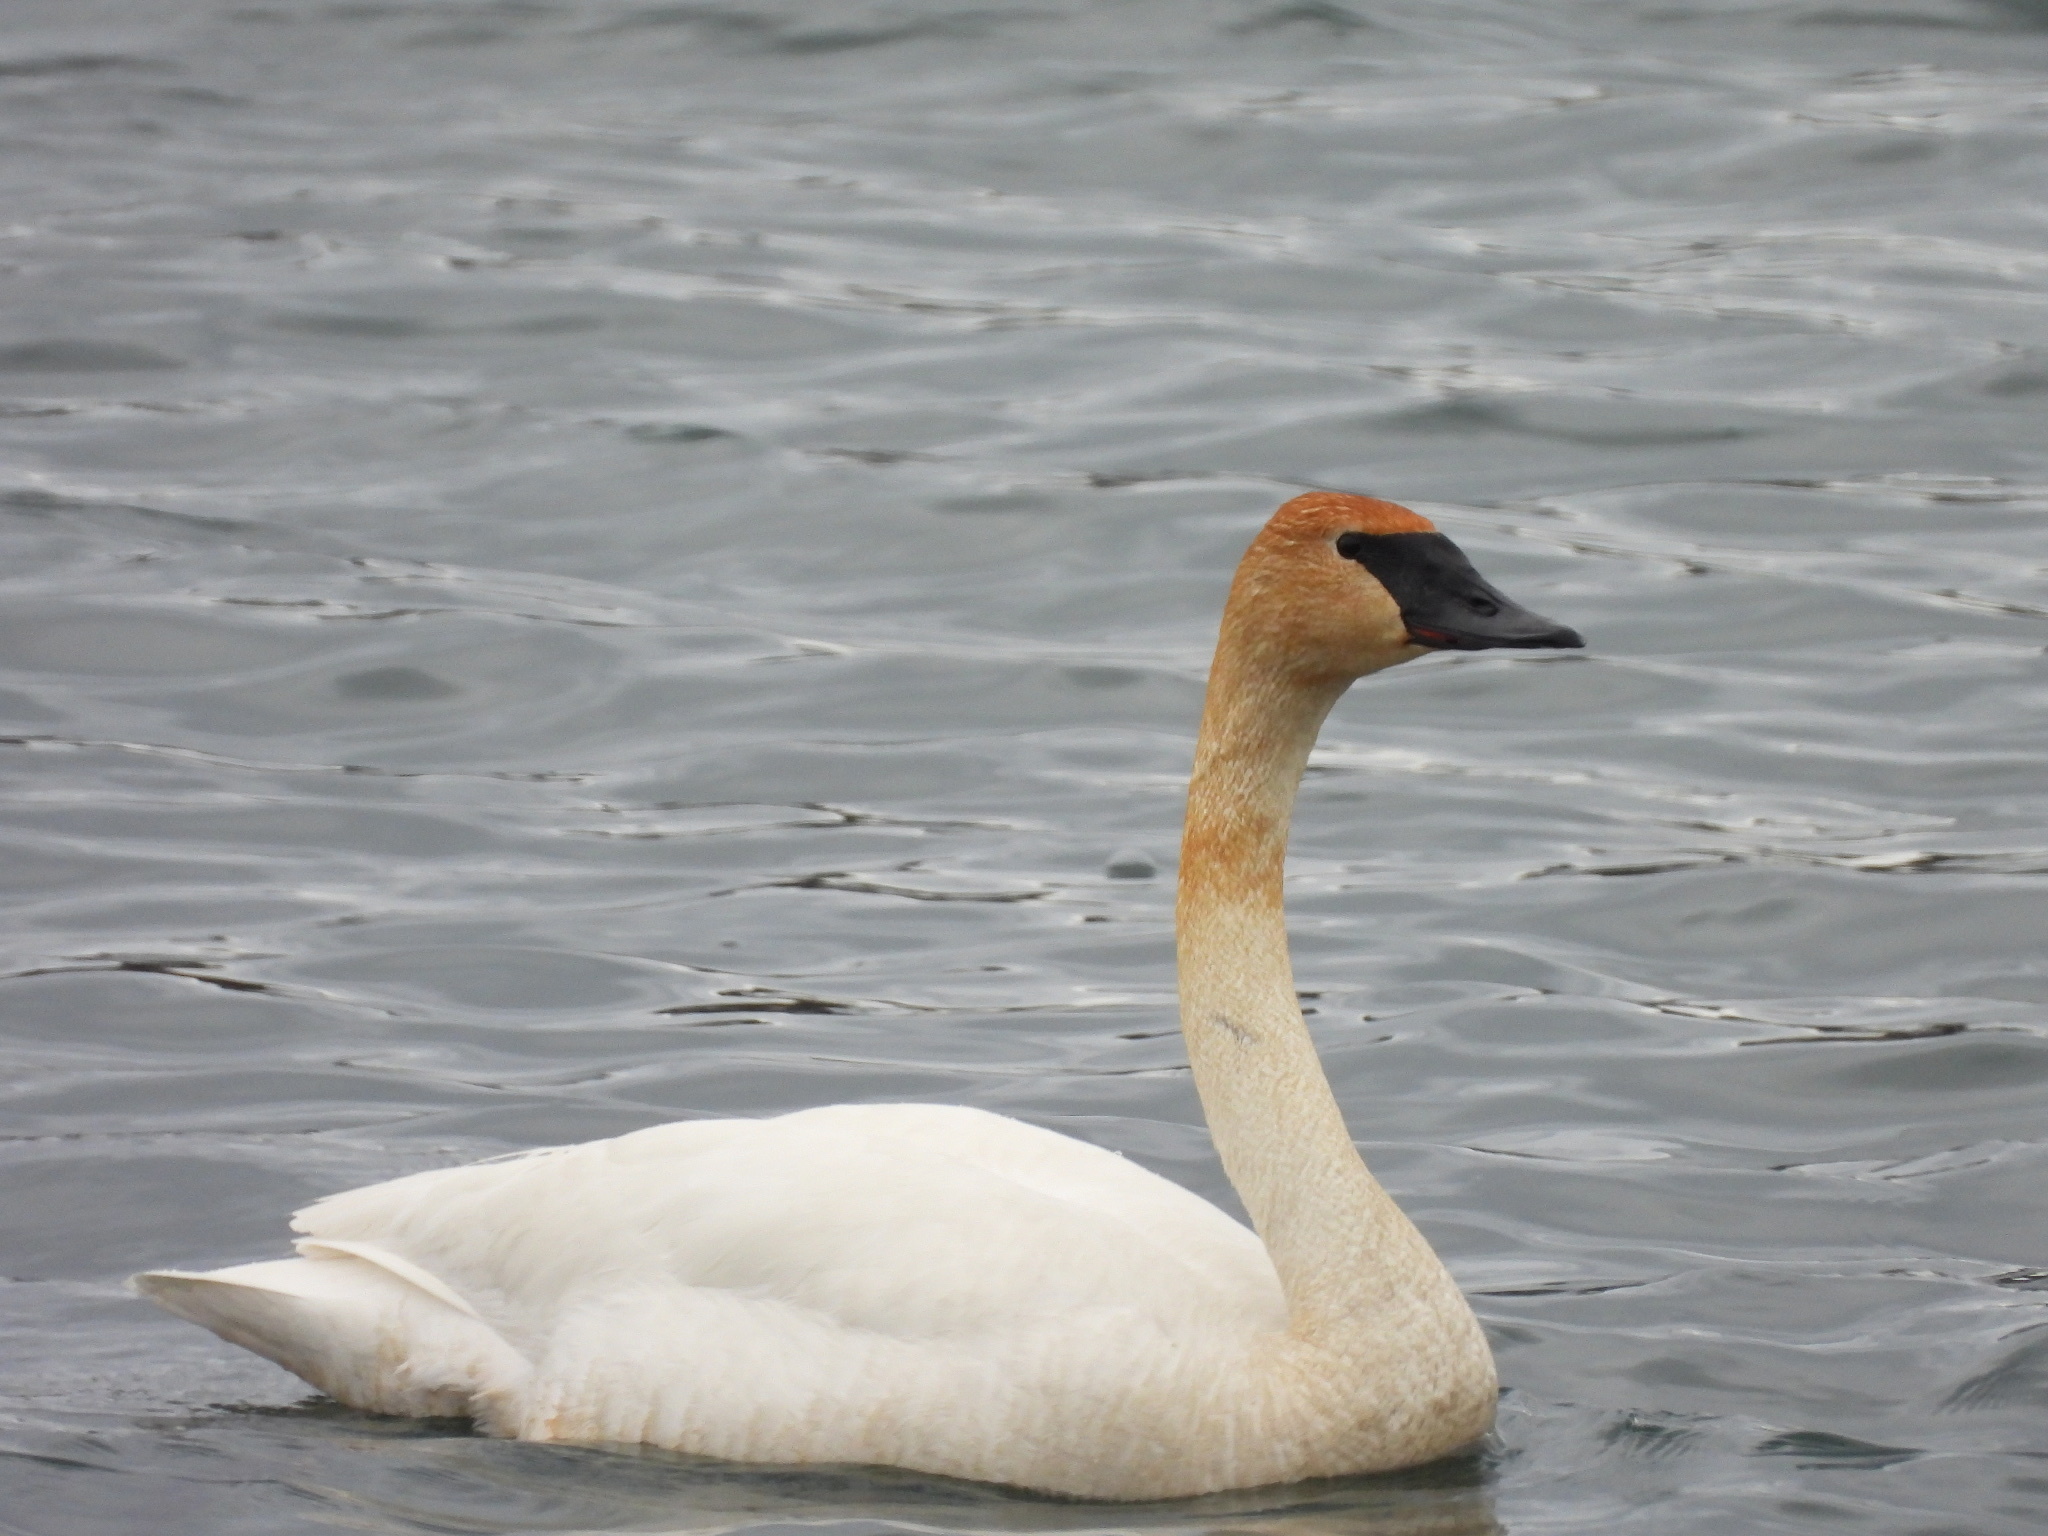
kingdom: Animalia
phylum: Chordata
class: Aves
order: Anseriformes
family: Anatidae
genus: Cygnus
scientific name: Cygnus buccinator
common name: Trumpeter swan
